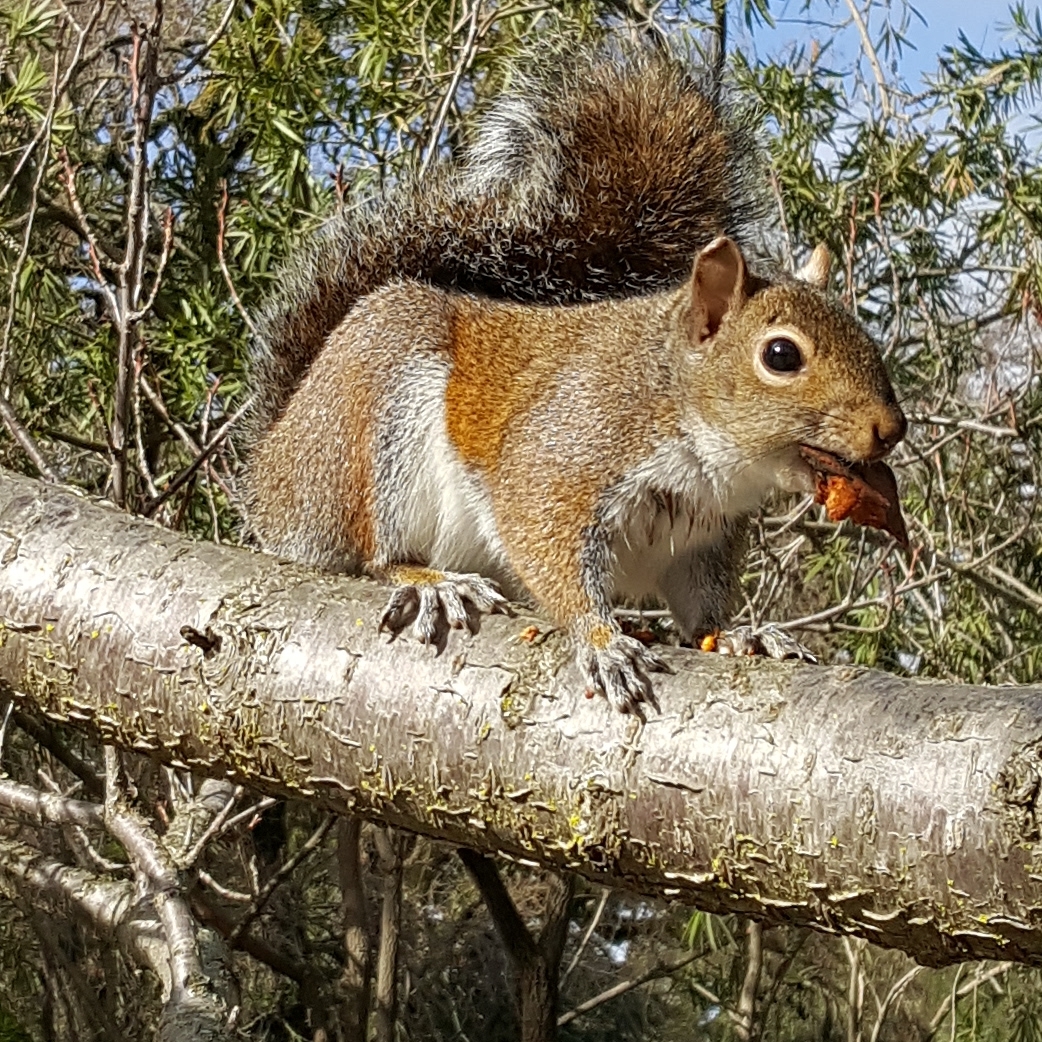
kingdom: Animalia
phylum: Chordata
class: Mammalia
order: Rodentia
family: Sciuridae
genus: Sciurus
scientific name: Sciurus carolinensis
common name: Eastern gray squirrel
